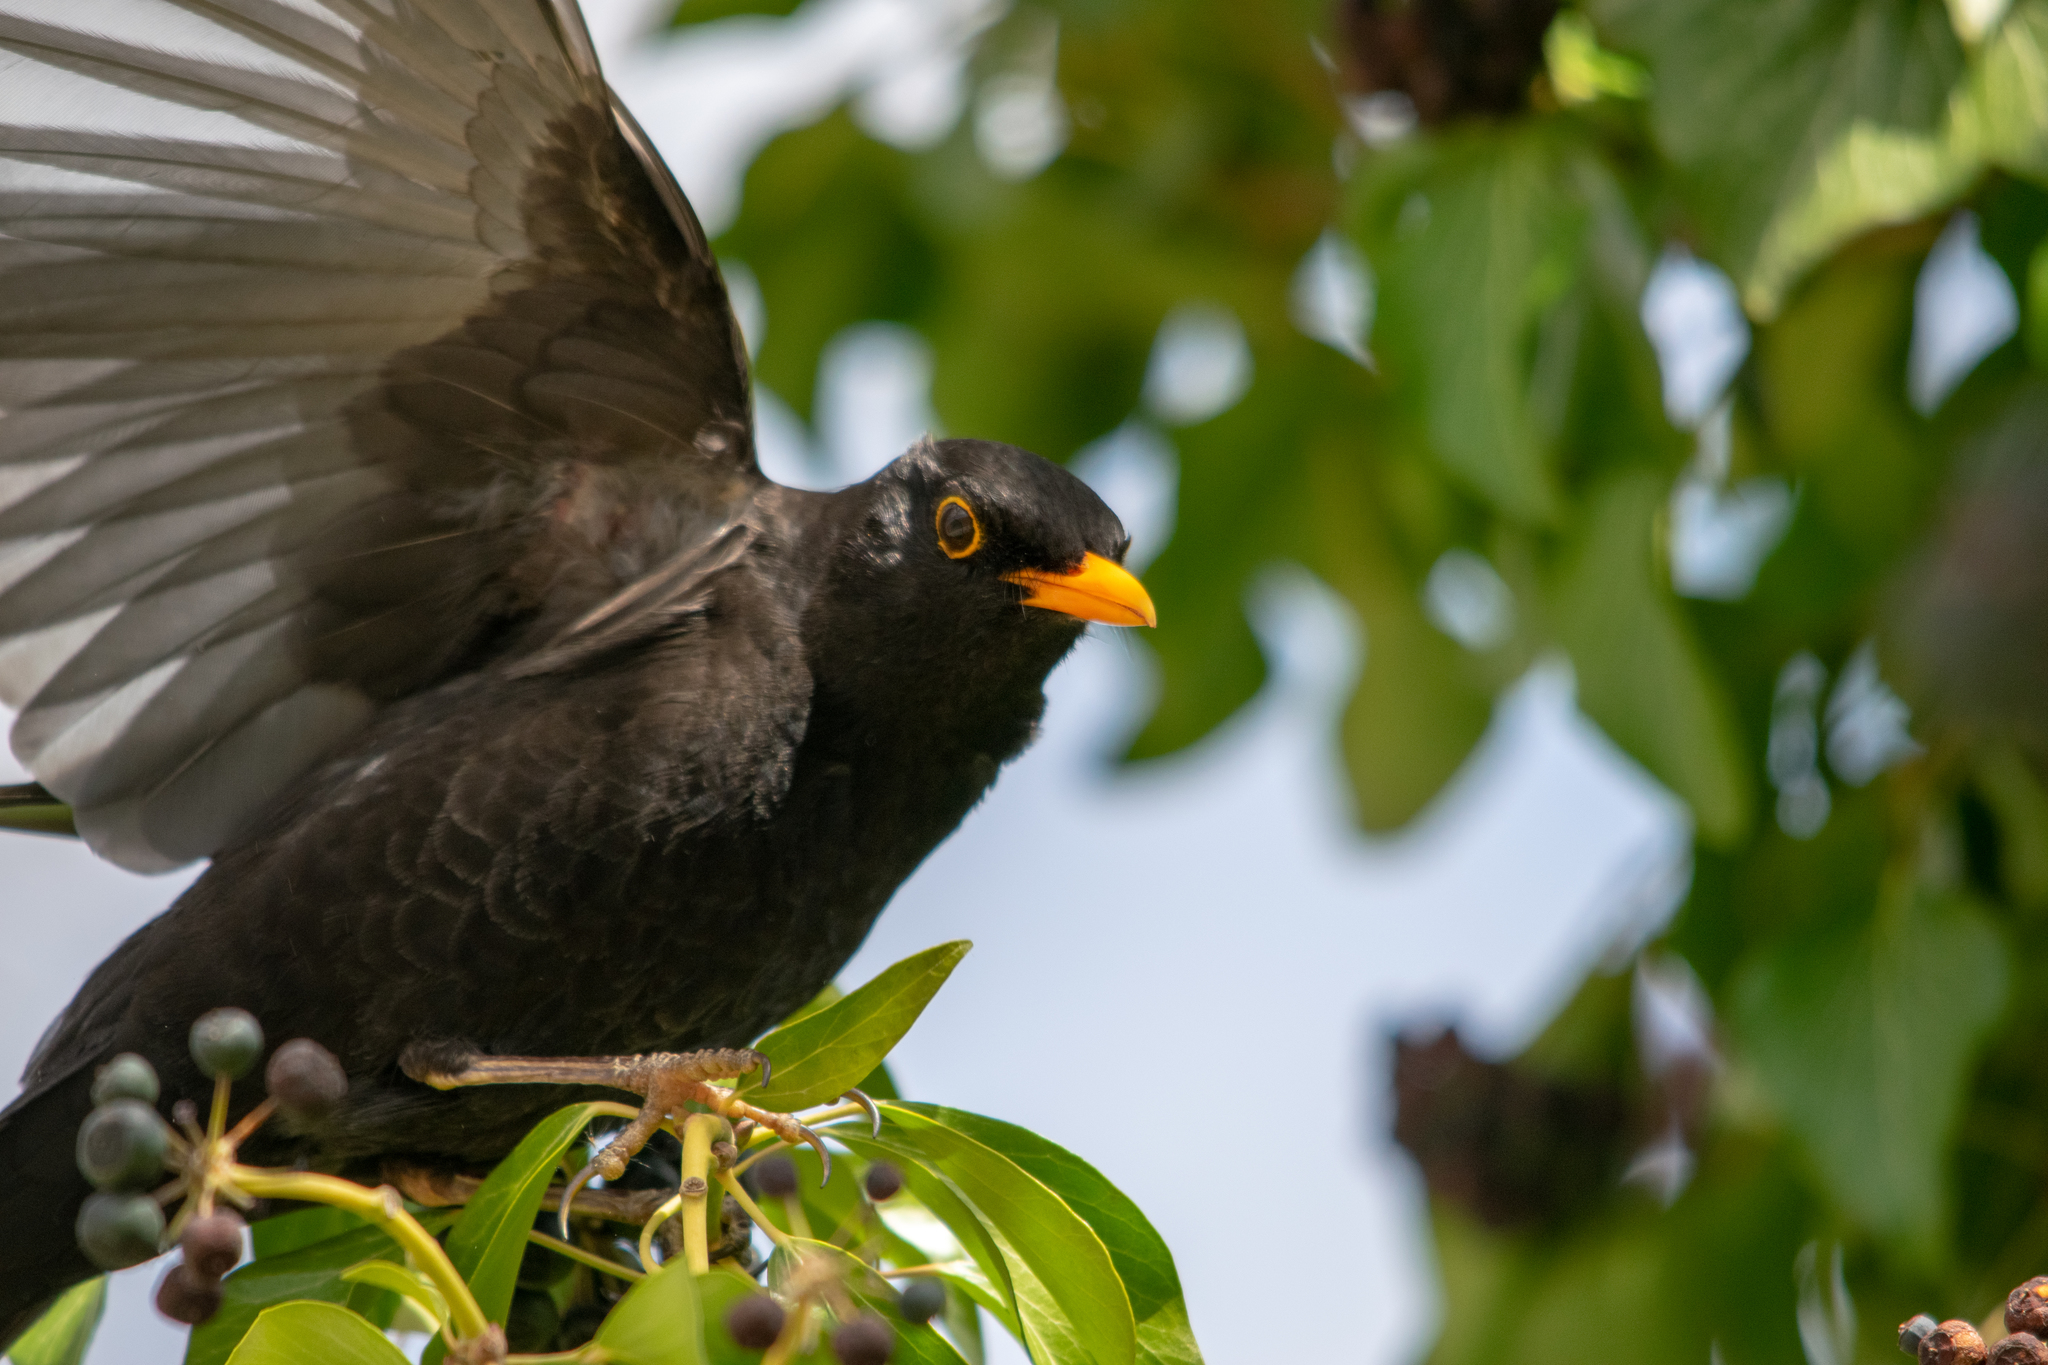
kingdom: Animalia
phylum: Chordata
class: Aves
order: Passeriformes
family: Turdidae
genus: Turdus
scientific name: Turdus merula
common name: Common blackbird
